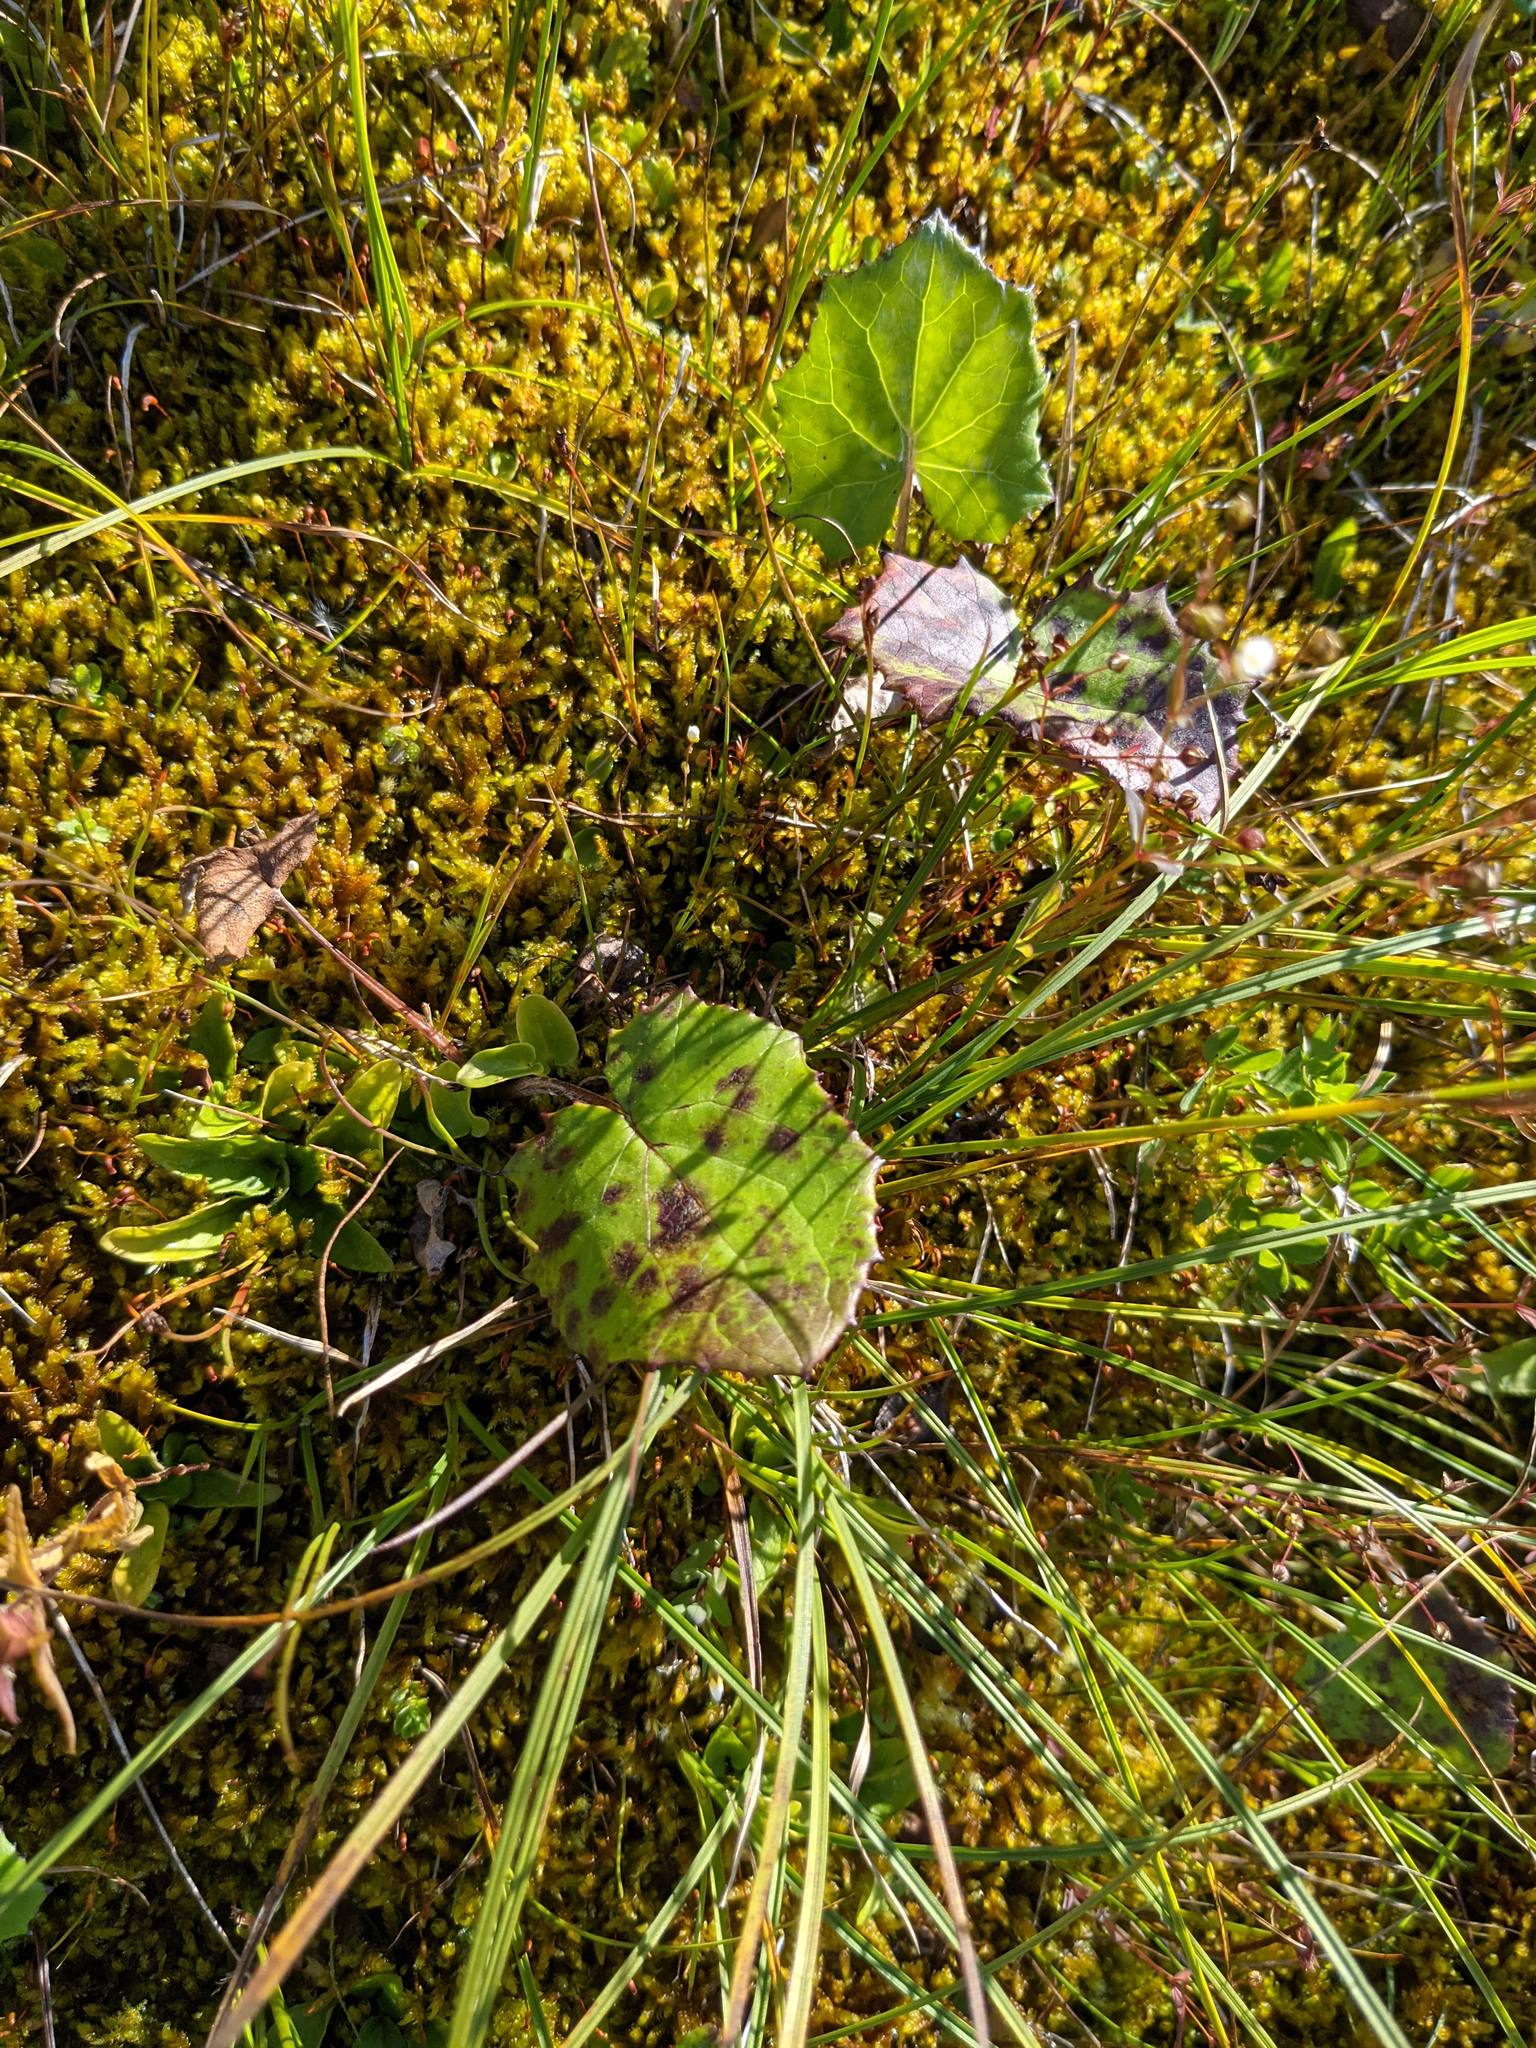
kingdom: Plantae
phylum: Tracheophyta
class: Magnoliopsida
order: Asterales
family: Asteraceae
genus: Tussilago
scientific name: Tussilago farfara
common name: Coltsfoot
